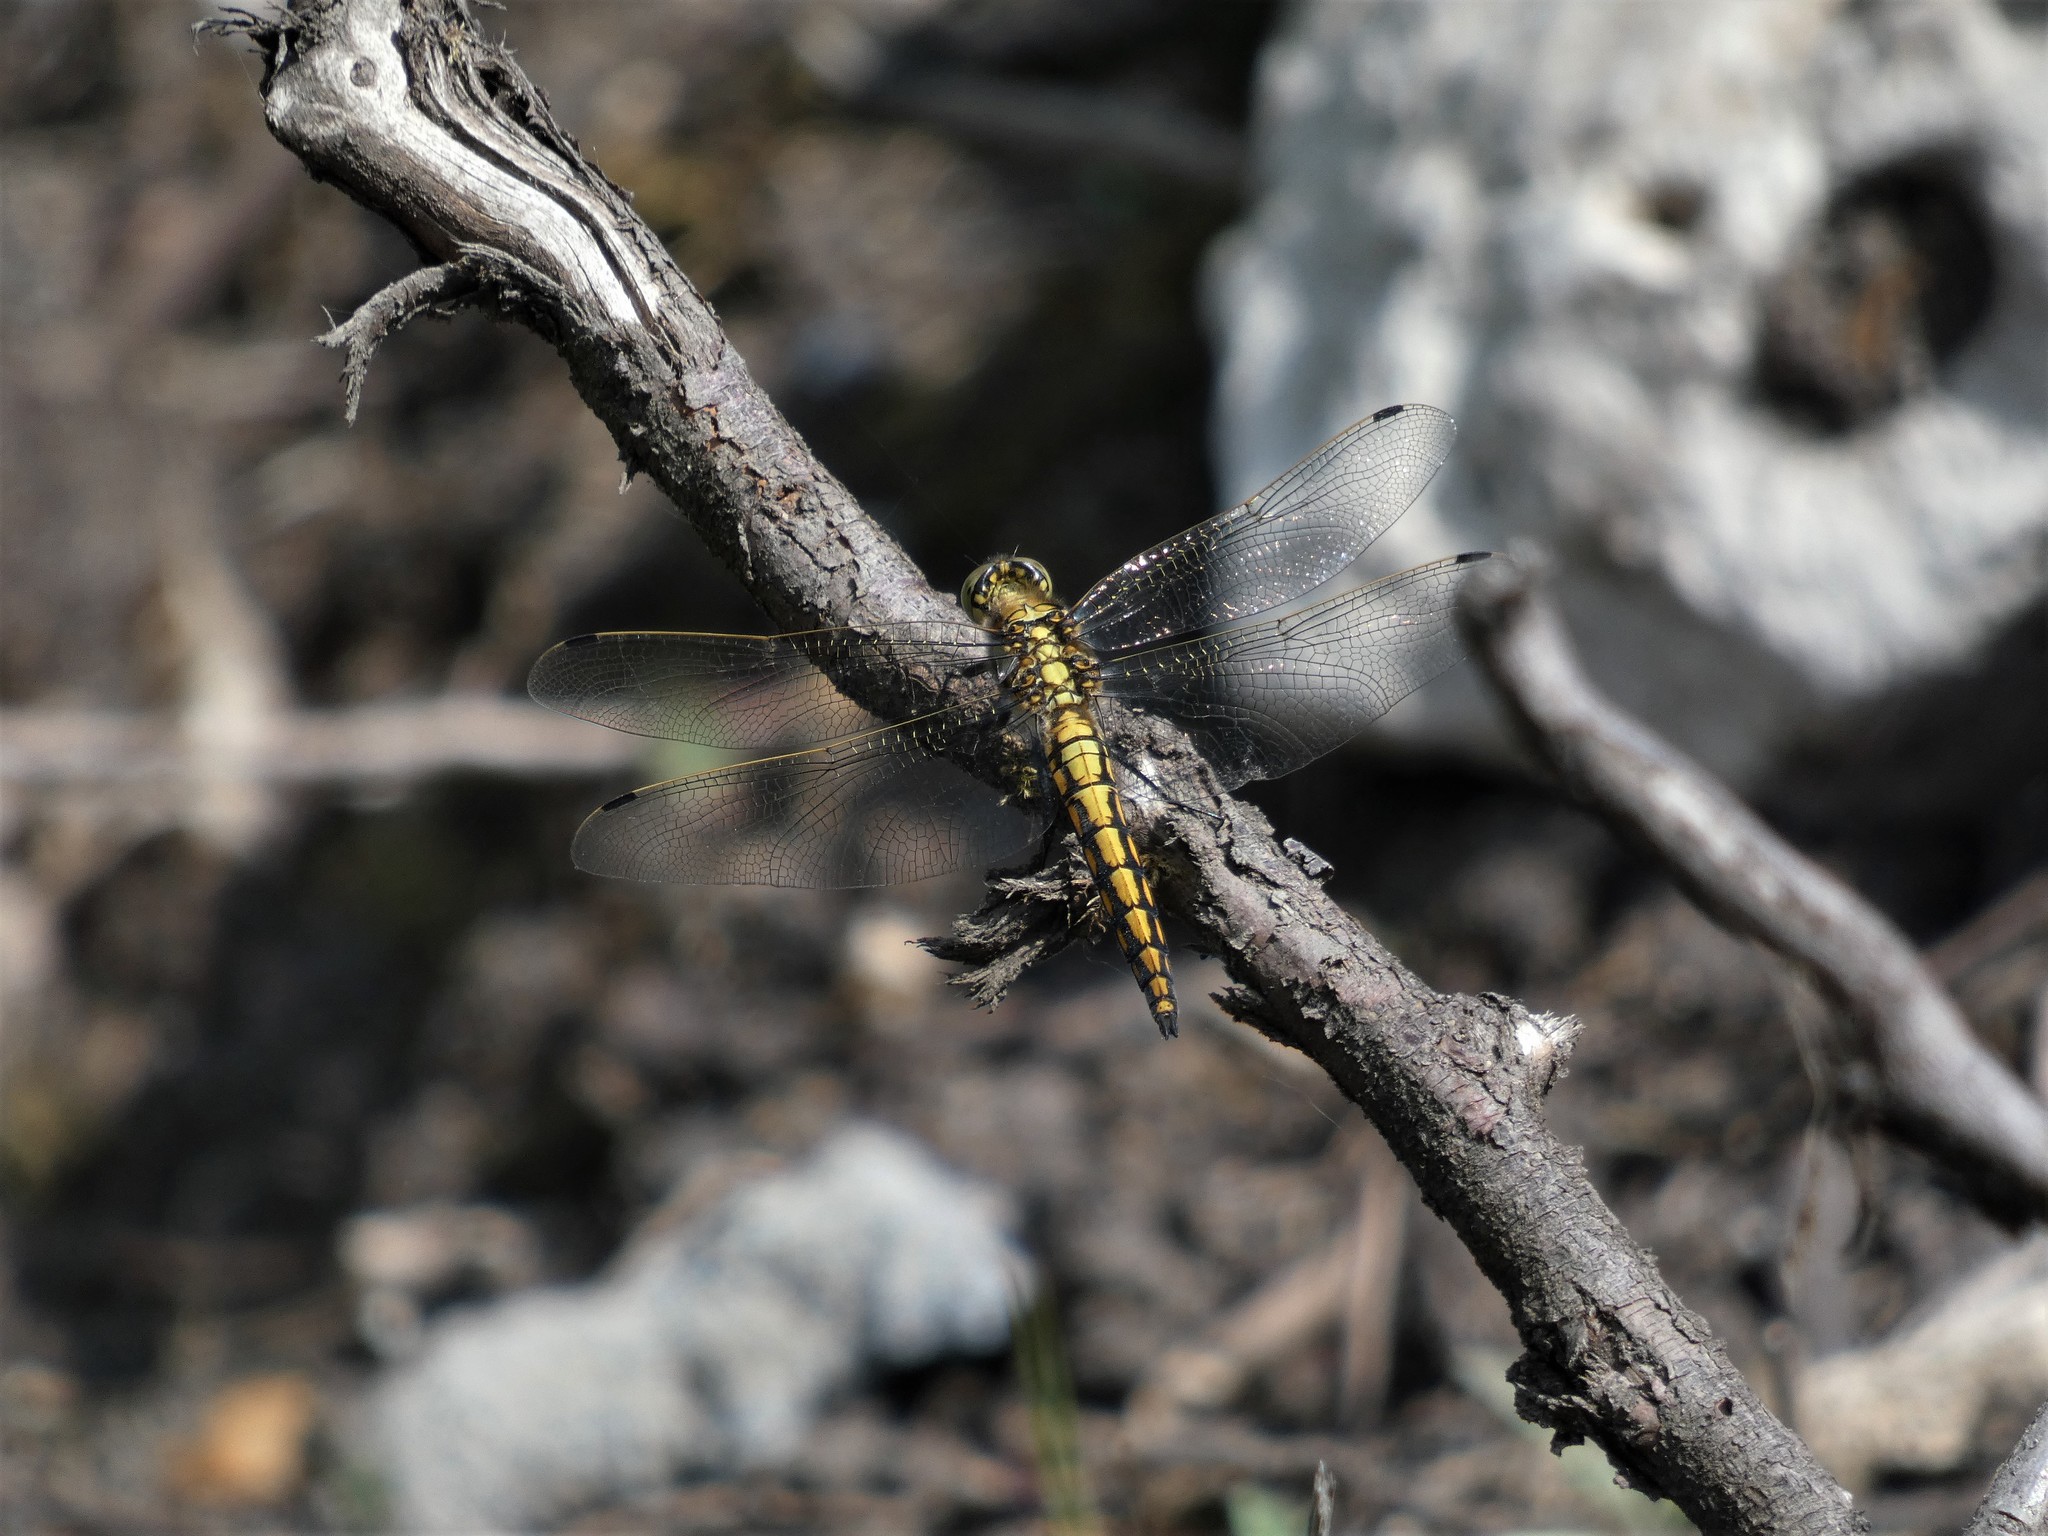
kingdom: Animalia
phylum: Arthropoda
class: Insecta
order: Odonata
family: Libellulidae
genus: Orthetrum
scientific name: Orthetrum cancellatum
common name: Black-tailed skimmer
